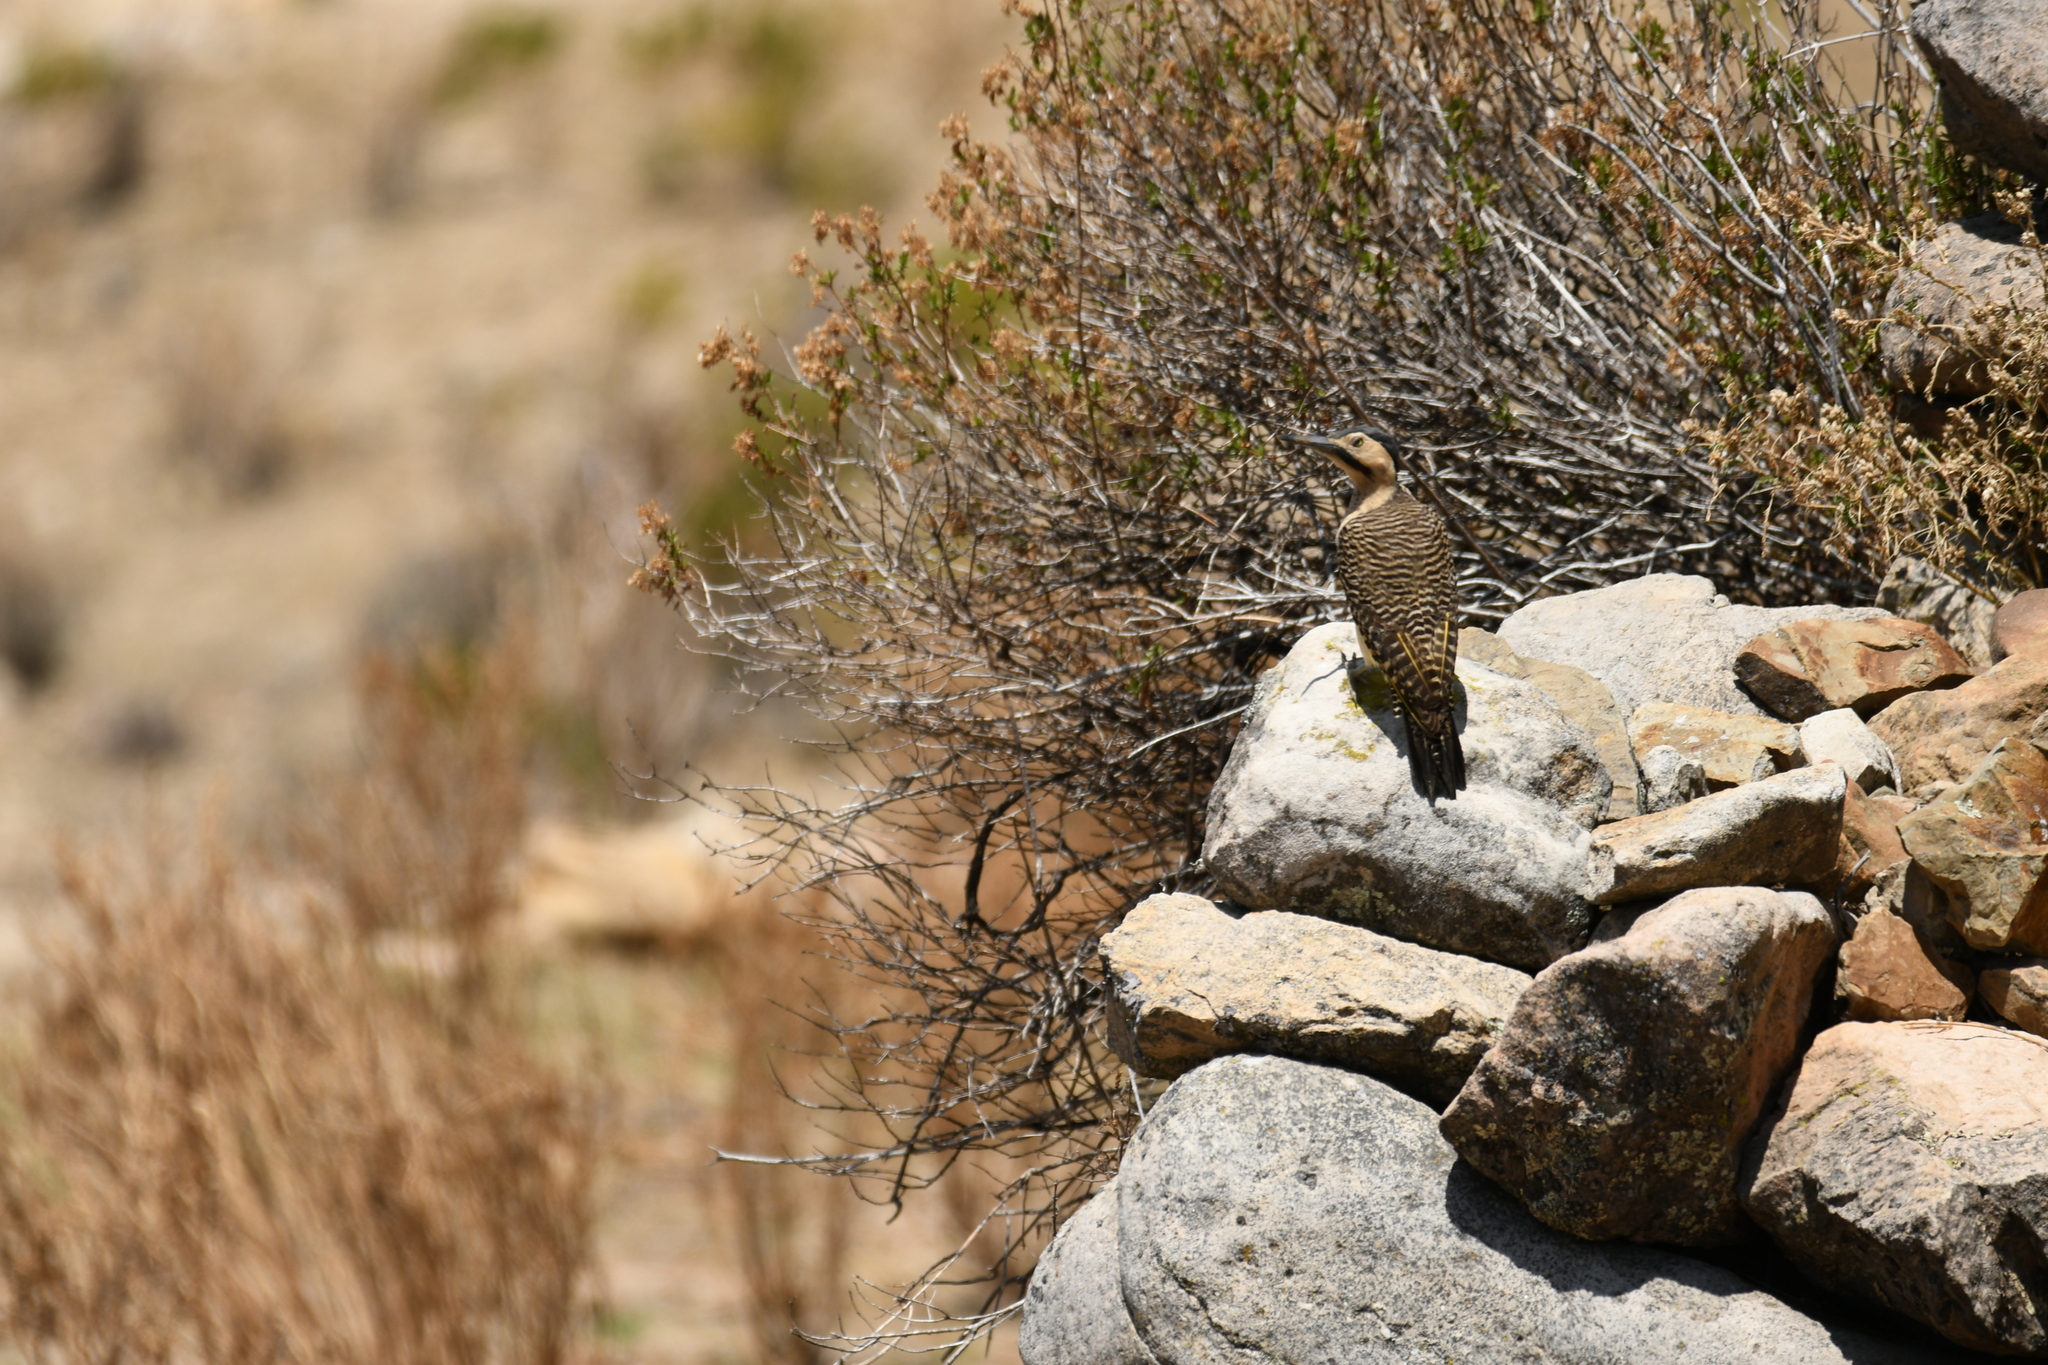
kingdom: Animalia
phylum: Chordata
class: Aves
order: Piciformes
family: Picidae
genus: Colaptes
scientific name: Colaptes rupicola
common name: Andean flicker
